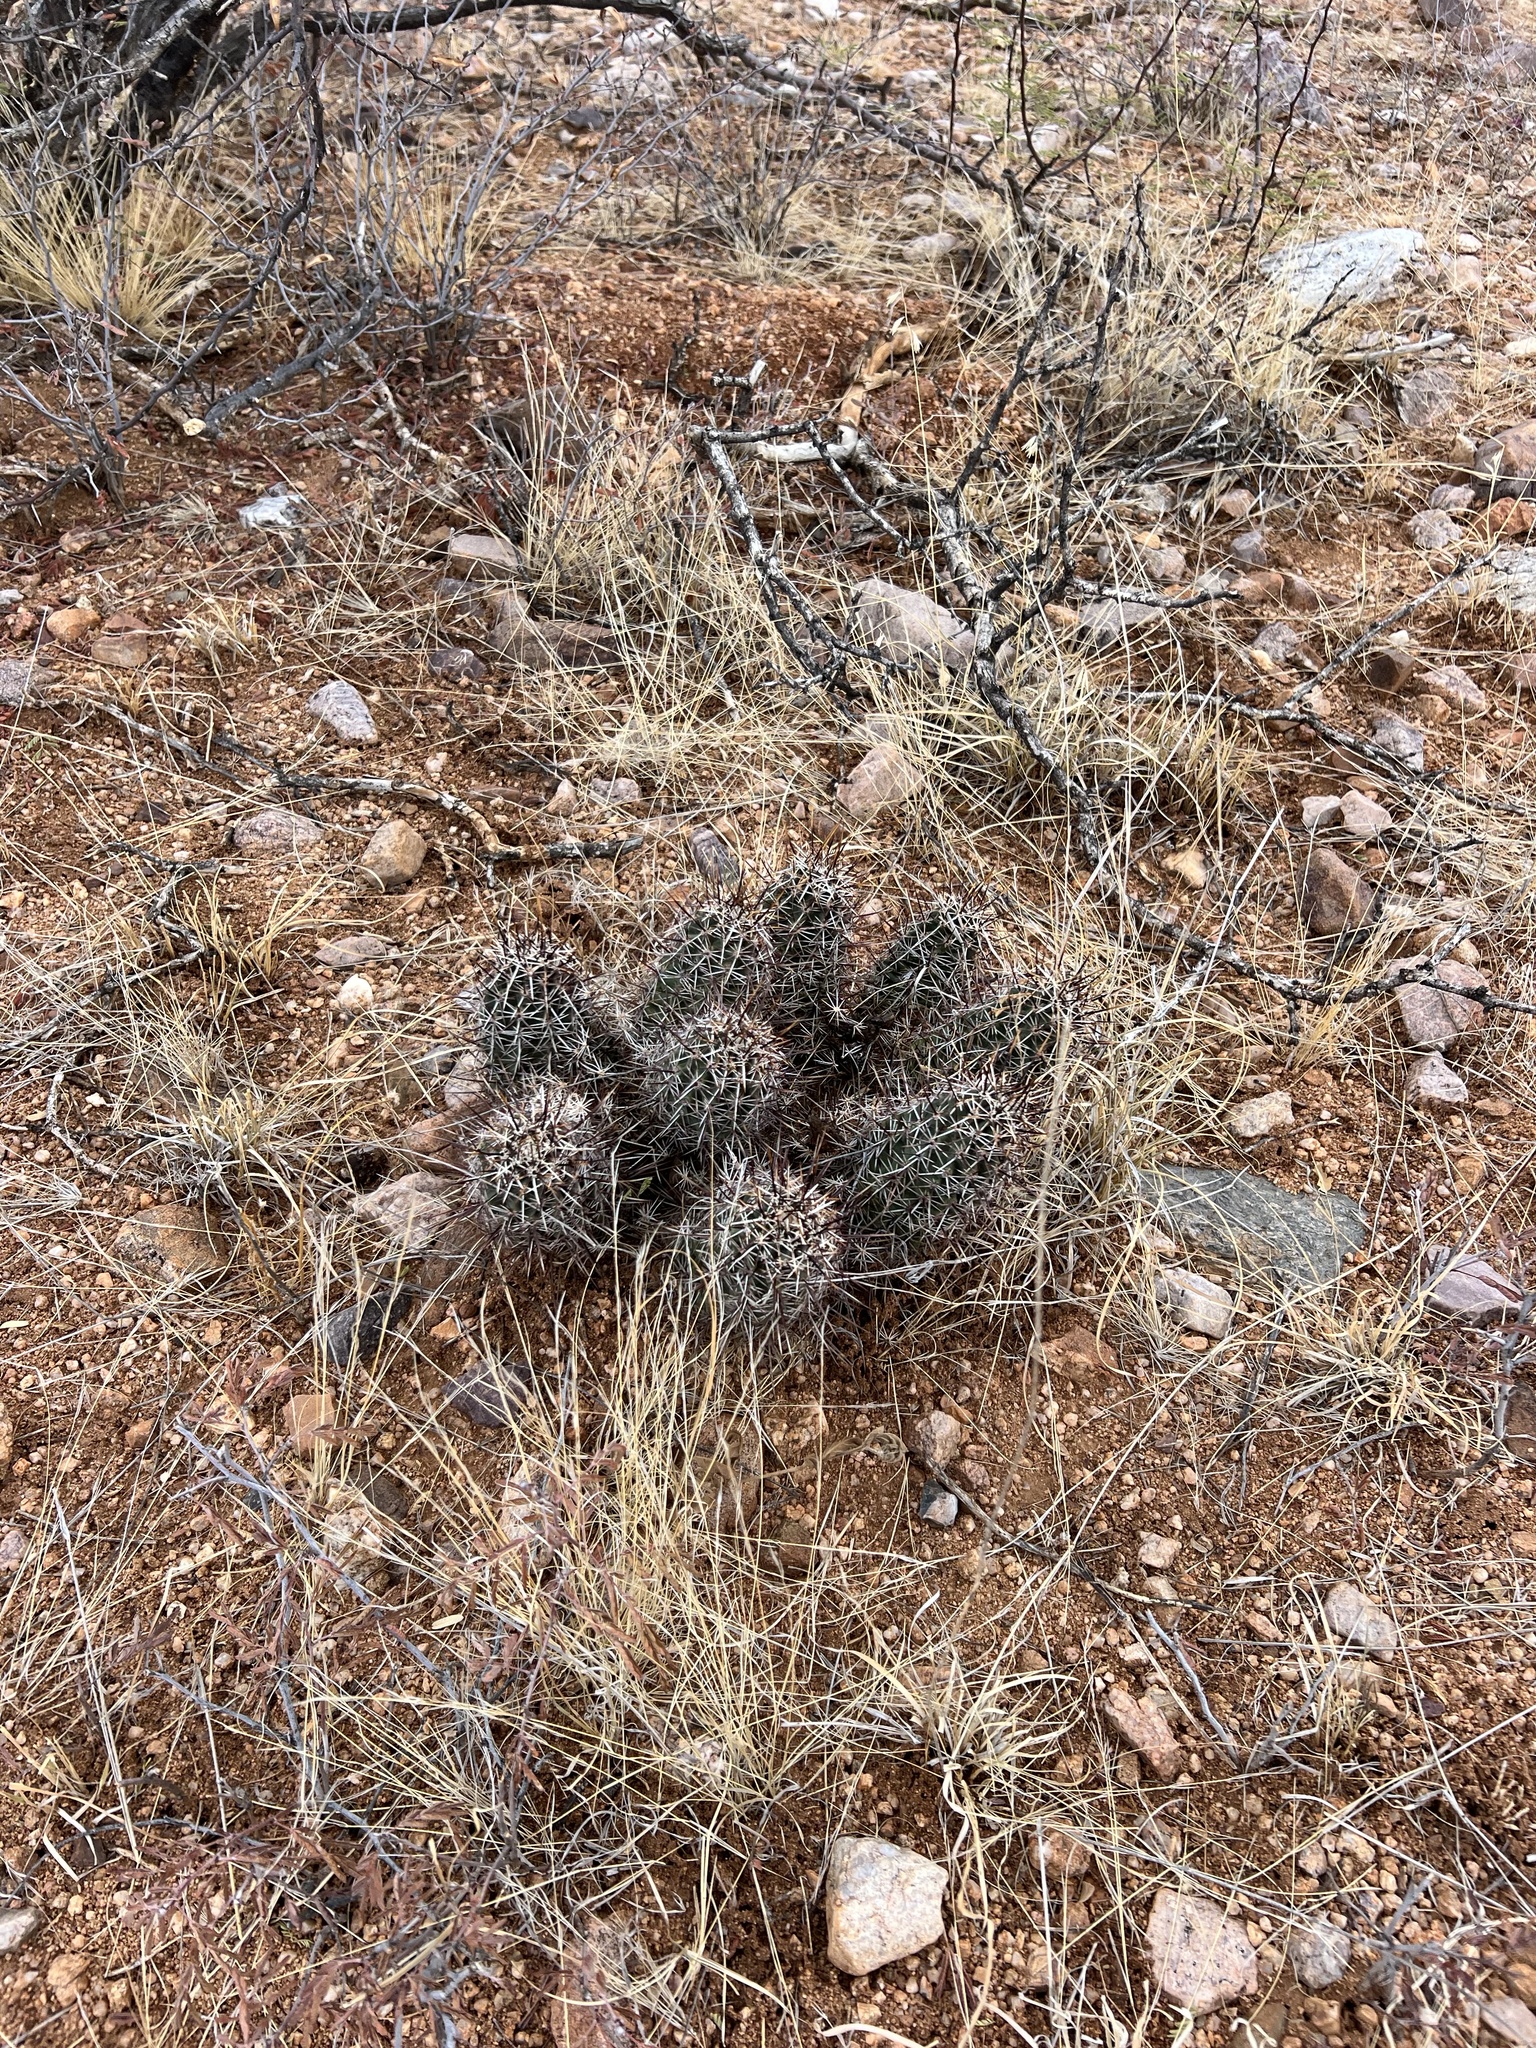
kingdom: Plantae
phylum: Tracheophyta
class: Magnoliopsida
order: Caryophyllales
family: Cactaceae
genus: Echinocereus
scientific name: Echinocereus fasciculatus
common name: Bundle hedgehog
